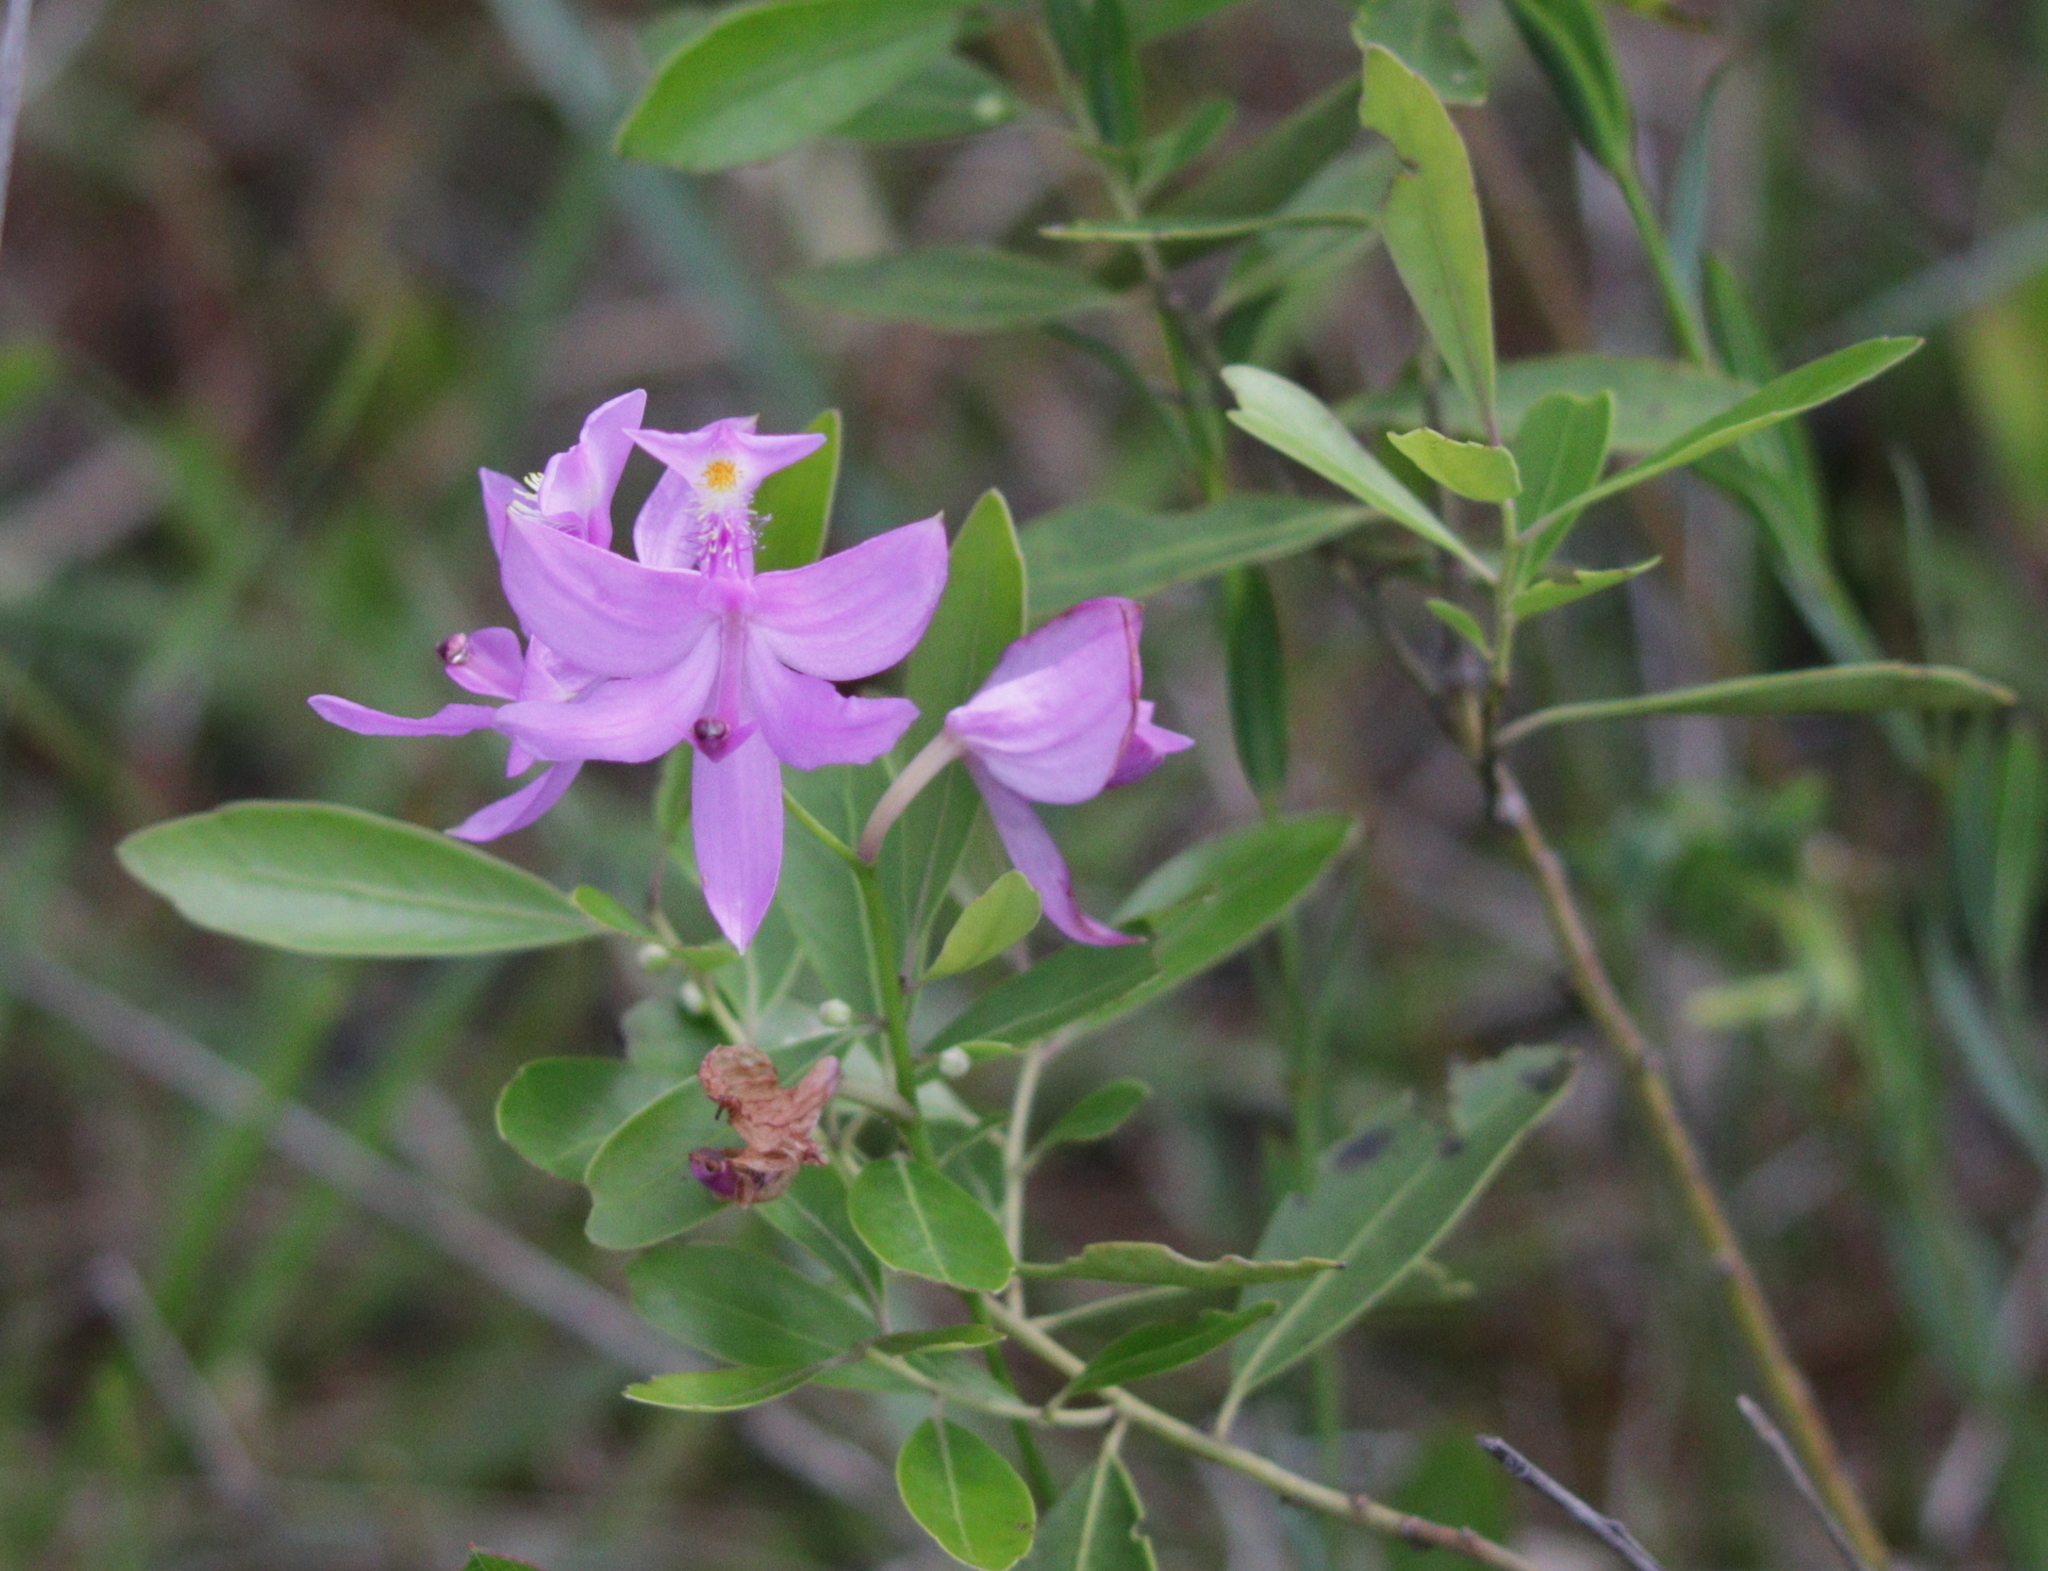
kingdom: Plantae
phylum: Tracheophyta
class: Liliopsida
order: Asparagales
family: Orchidaceae
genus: Calopogon
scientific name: Calopogon tuberosus
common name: Grass-pink
